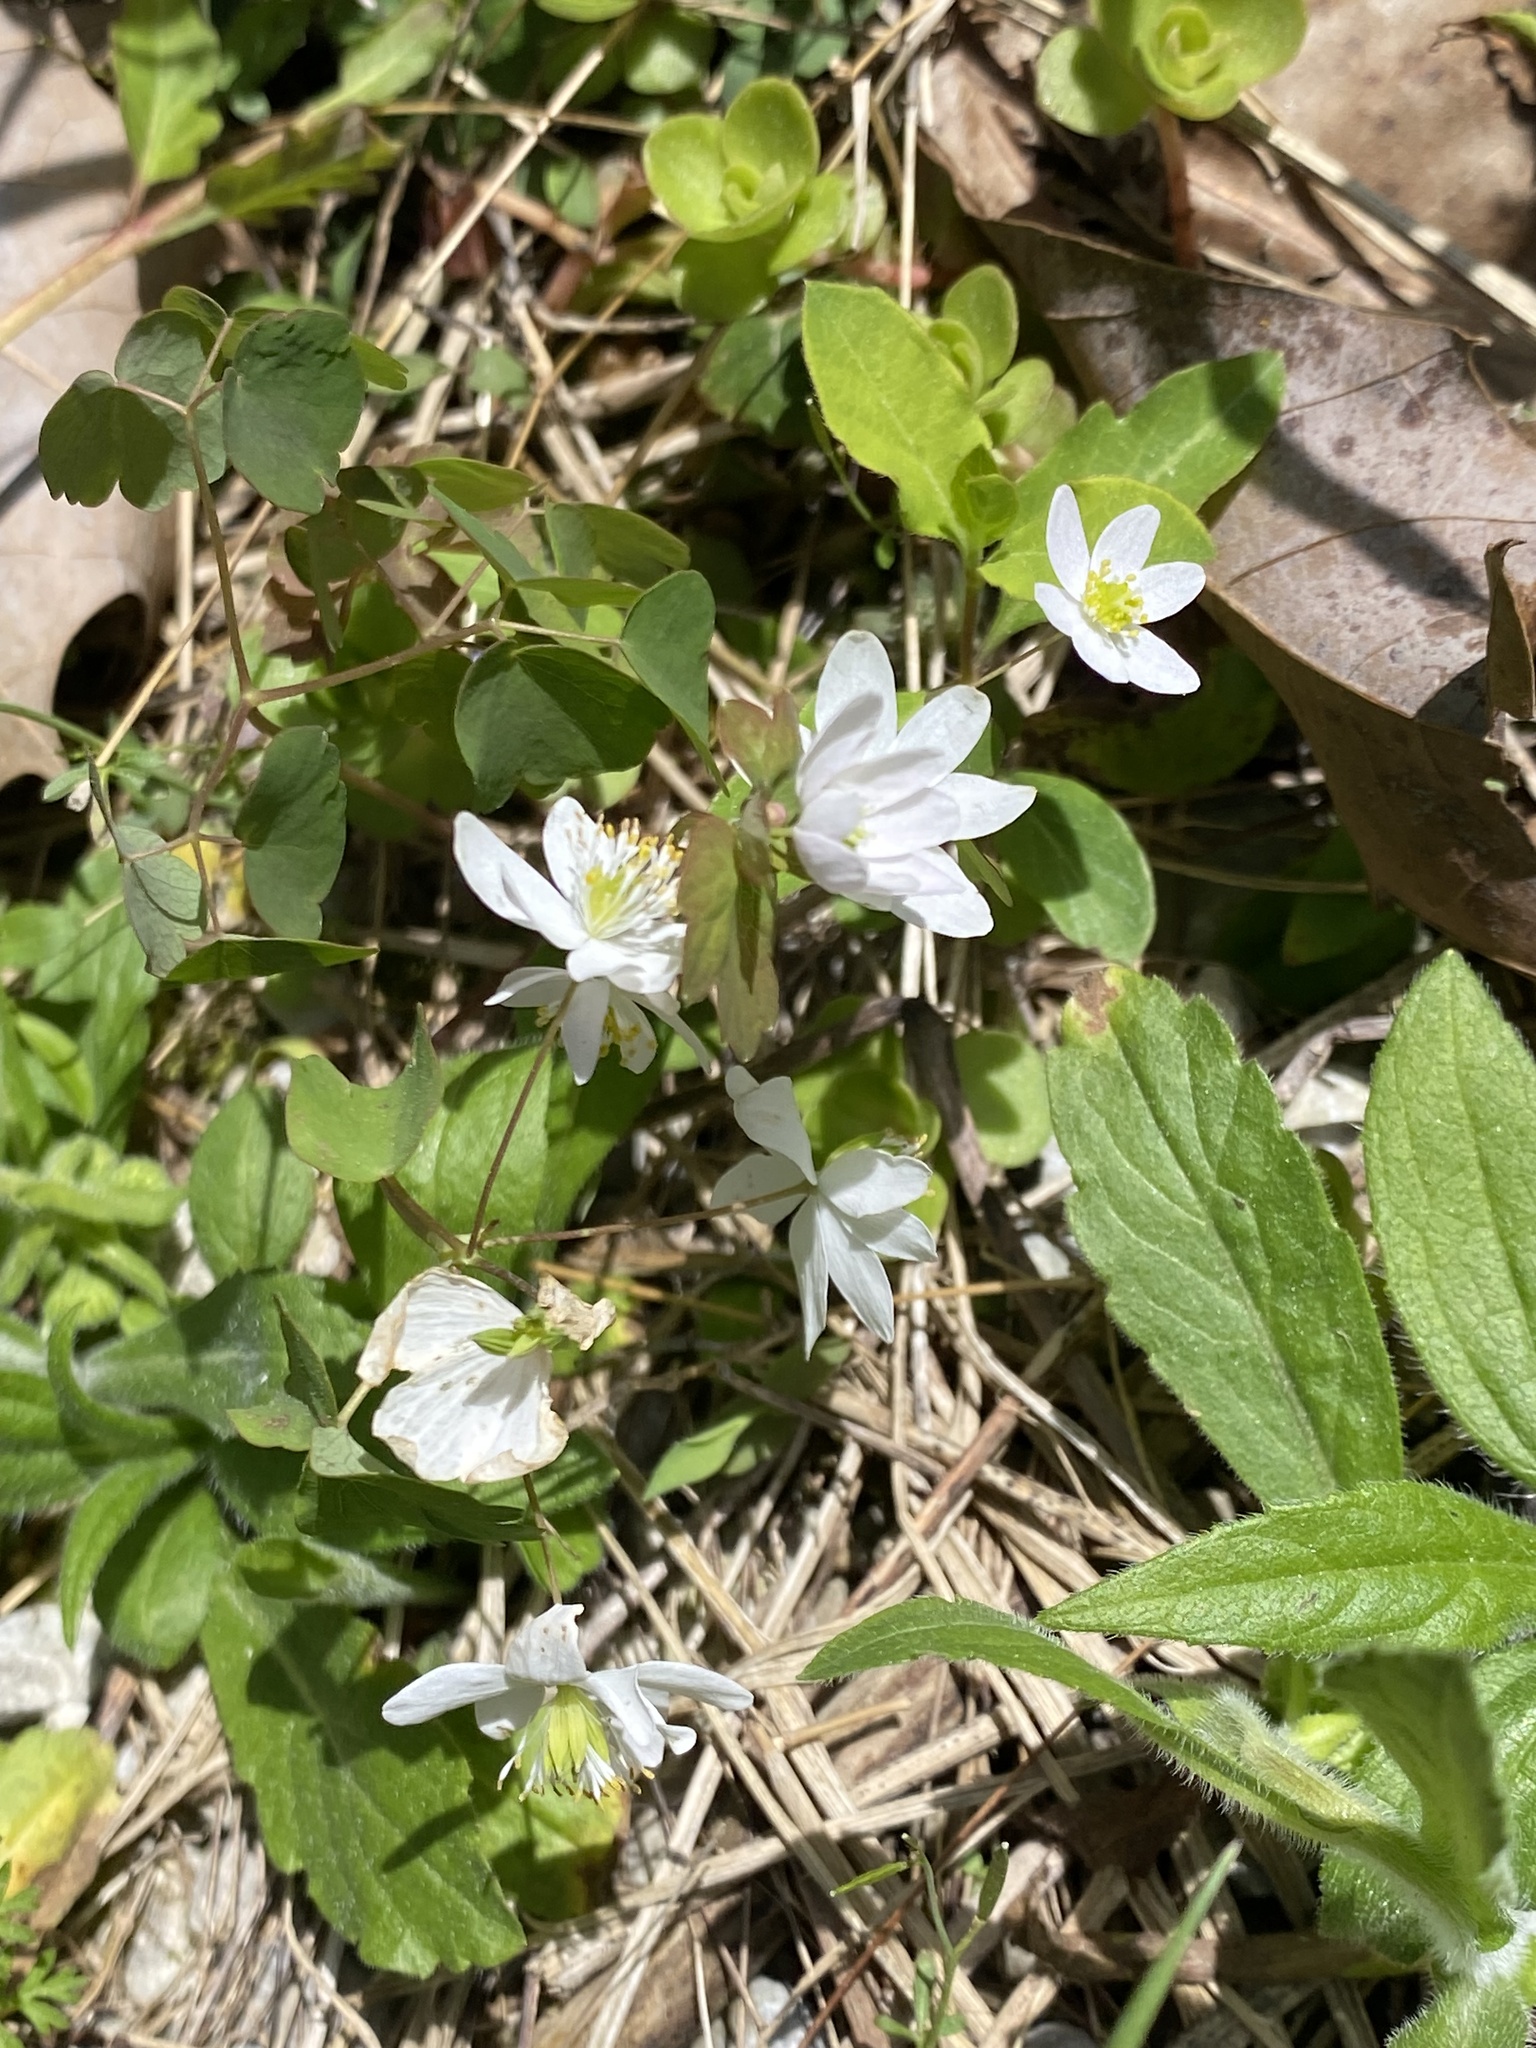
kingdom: Plantae
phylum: Tracheophyta
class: Magnoliopsida
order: Ranunculales
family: Ranunculaceae
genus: Thalictrum
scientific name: Thalictrum thalictroides
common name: Rue-anemone
